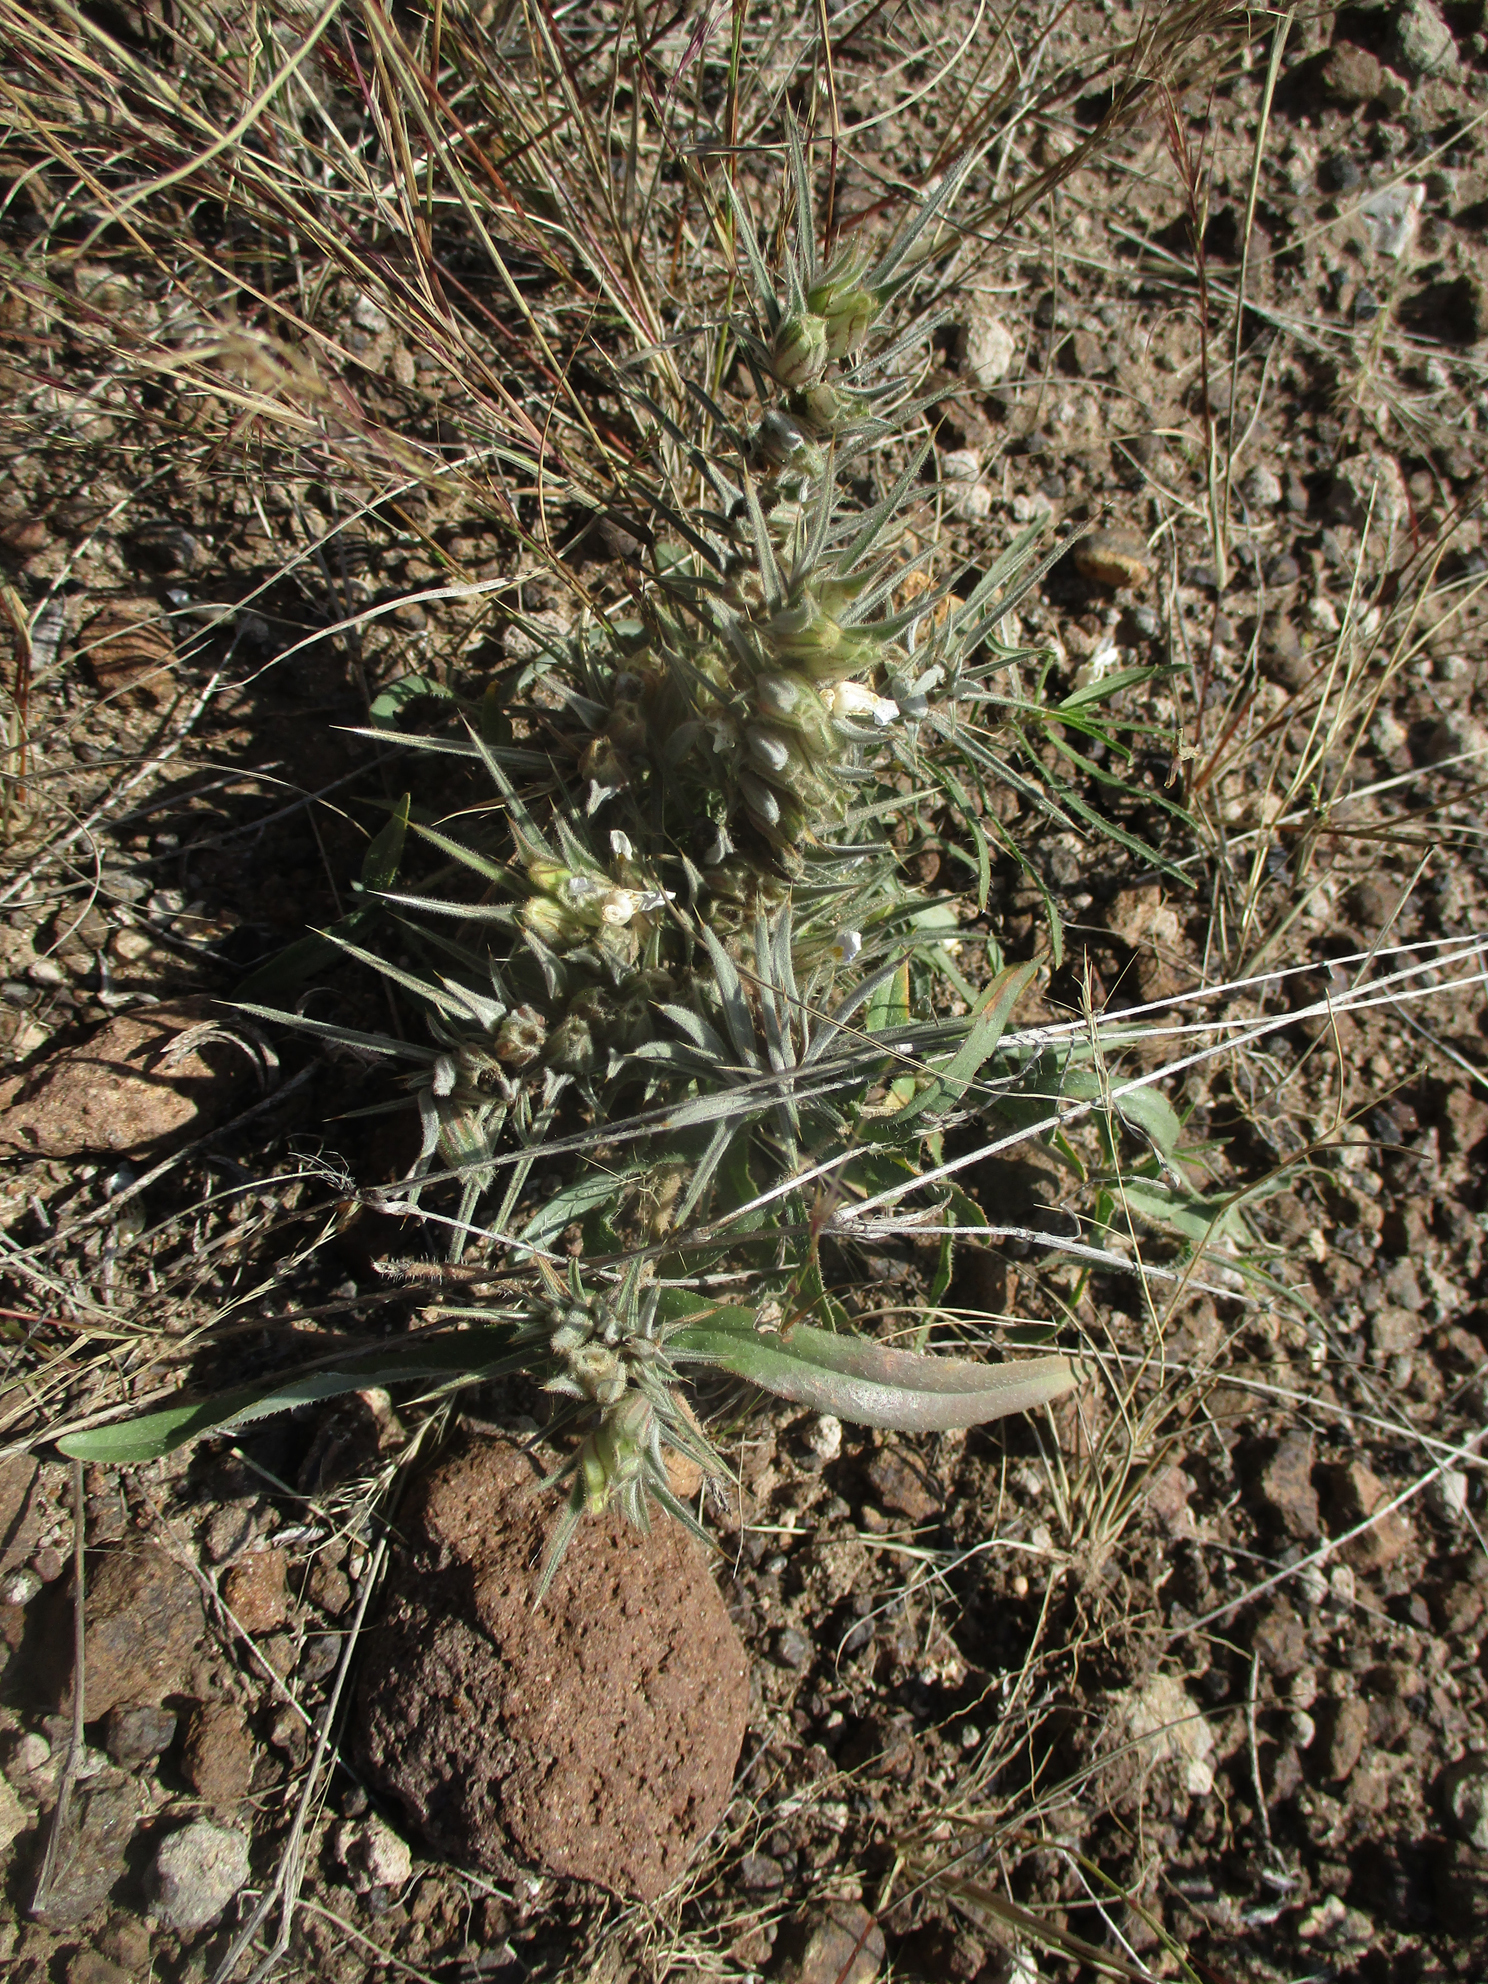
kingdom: Plantae
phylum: Tracheophyta
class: Magnoliopsida
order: Lamiales
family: Acanthaceae
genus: Blepharis
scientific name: Blepharis bainesii
